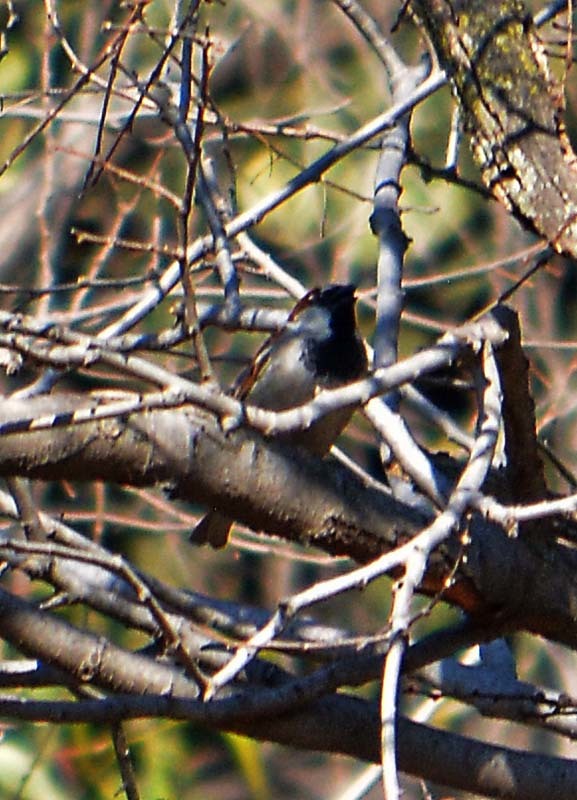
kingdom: Animalia
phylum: Chordata
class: Aves
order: Passeriformes
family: Passeridae
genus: Passer
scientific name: Passer domesticus
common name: House sparrow
